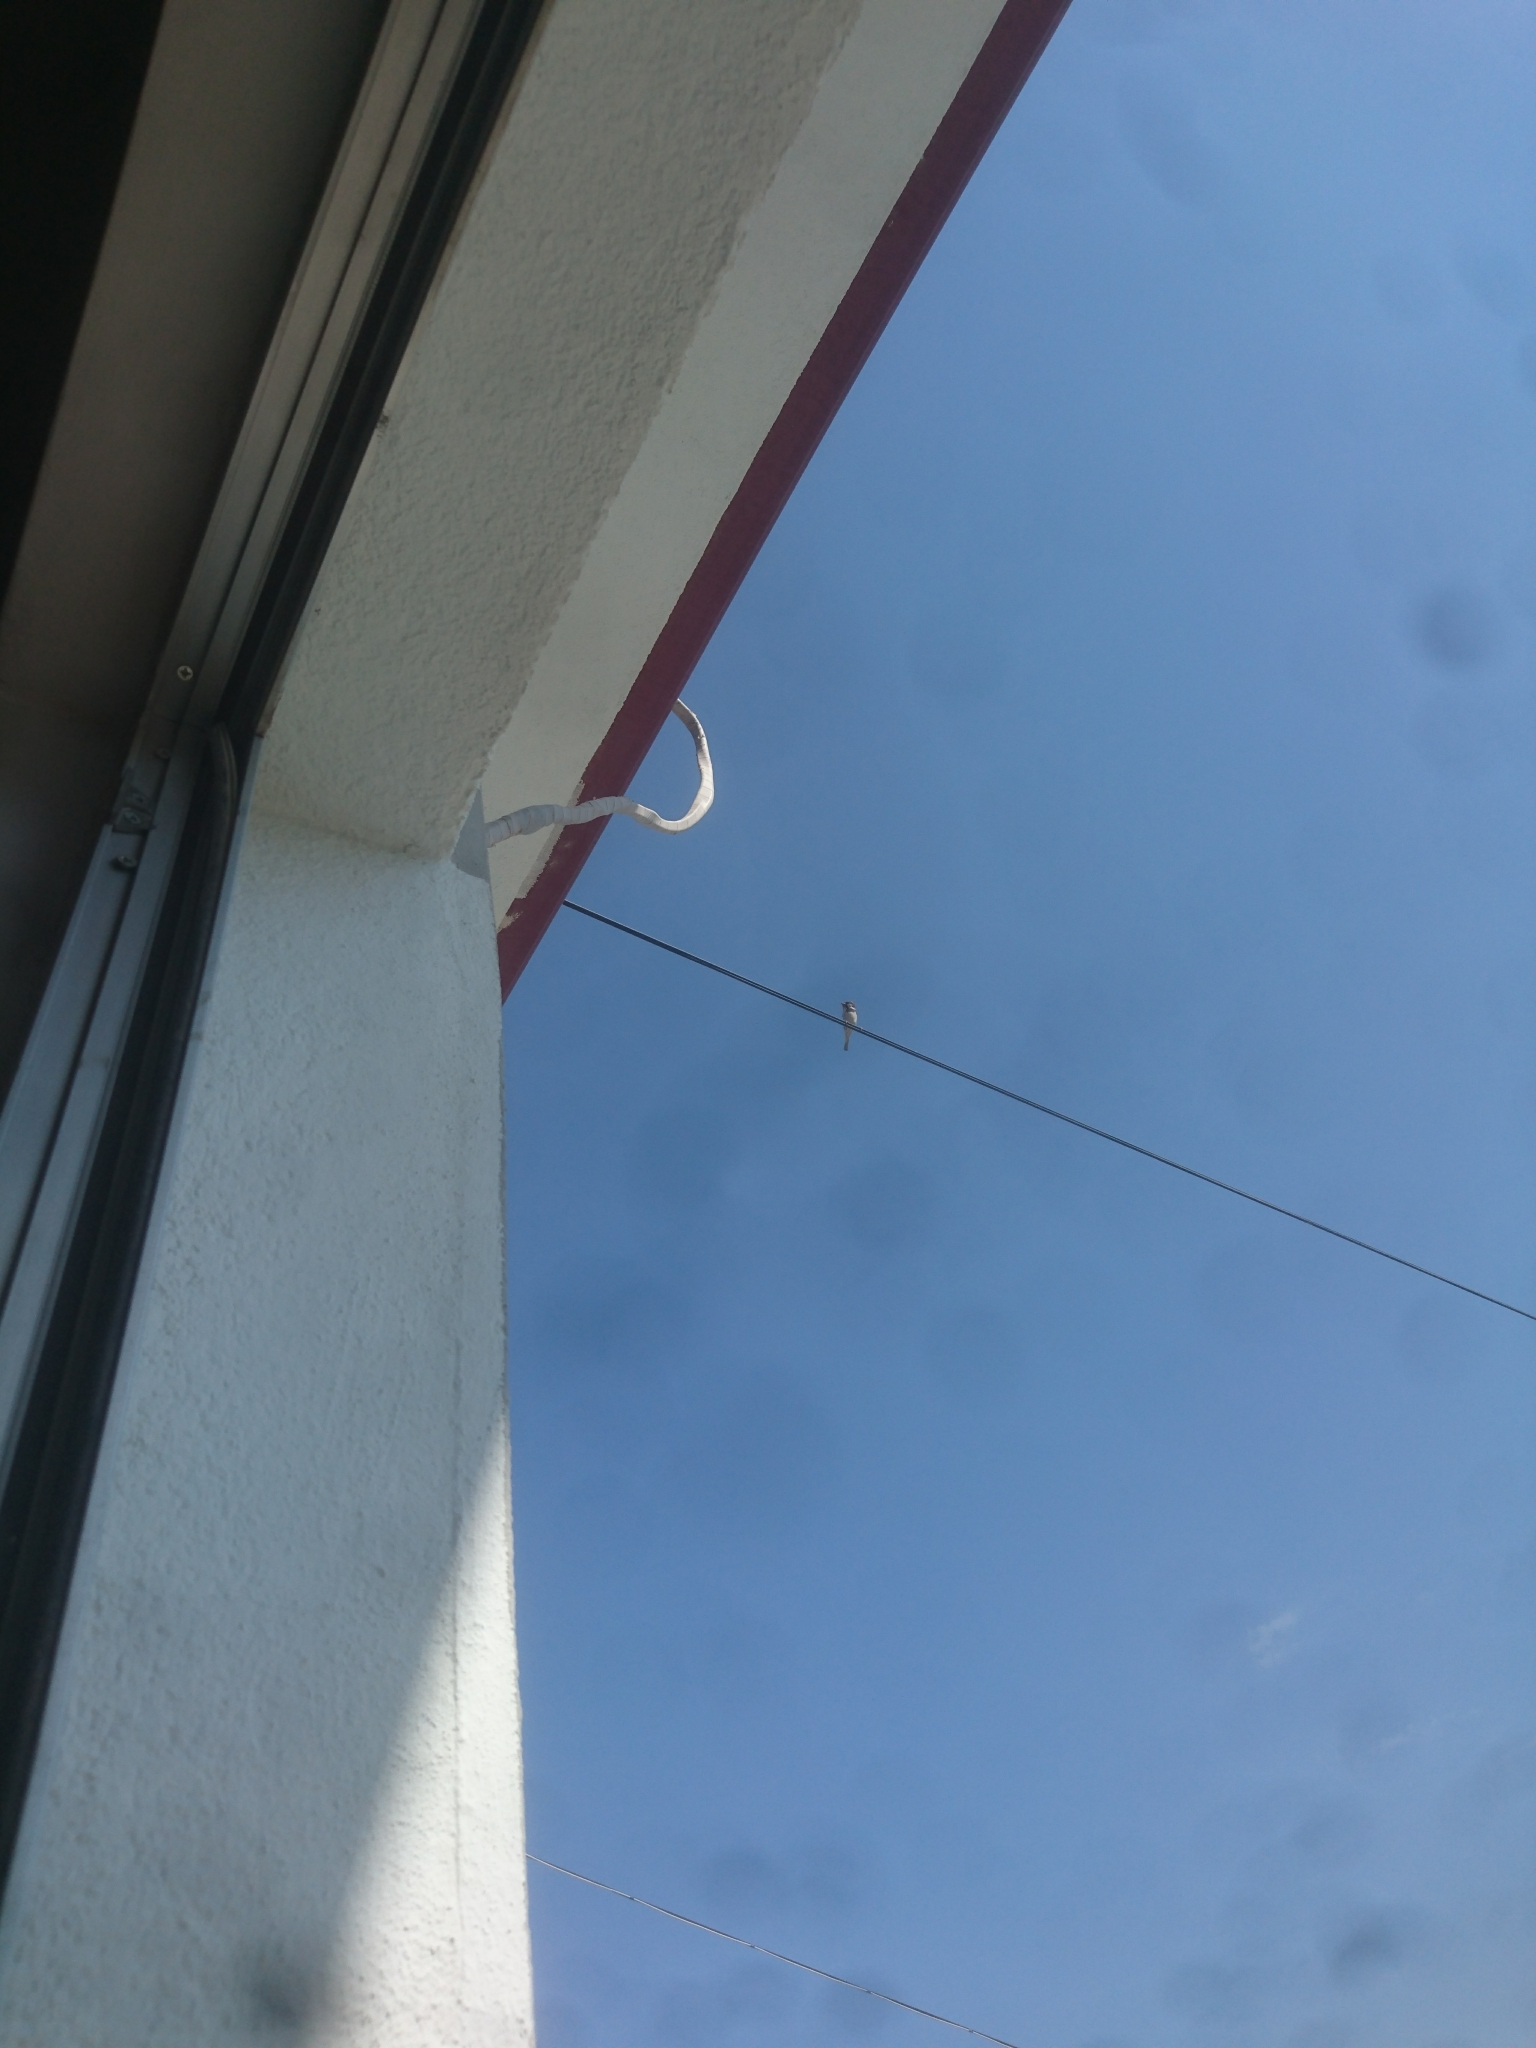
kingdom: Animalia
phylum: Chordata
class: Aves
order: Passeriformes
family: Passeridae
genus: Passer
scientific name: Passer domesticus
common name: House sparrow
